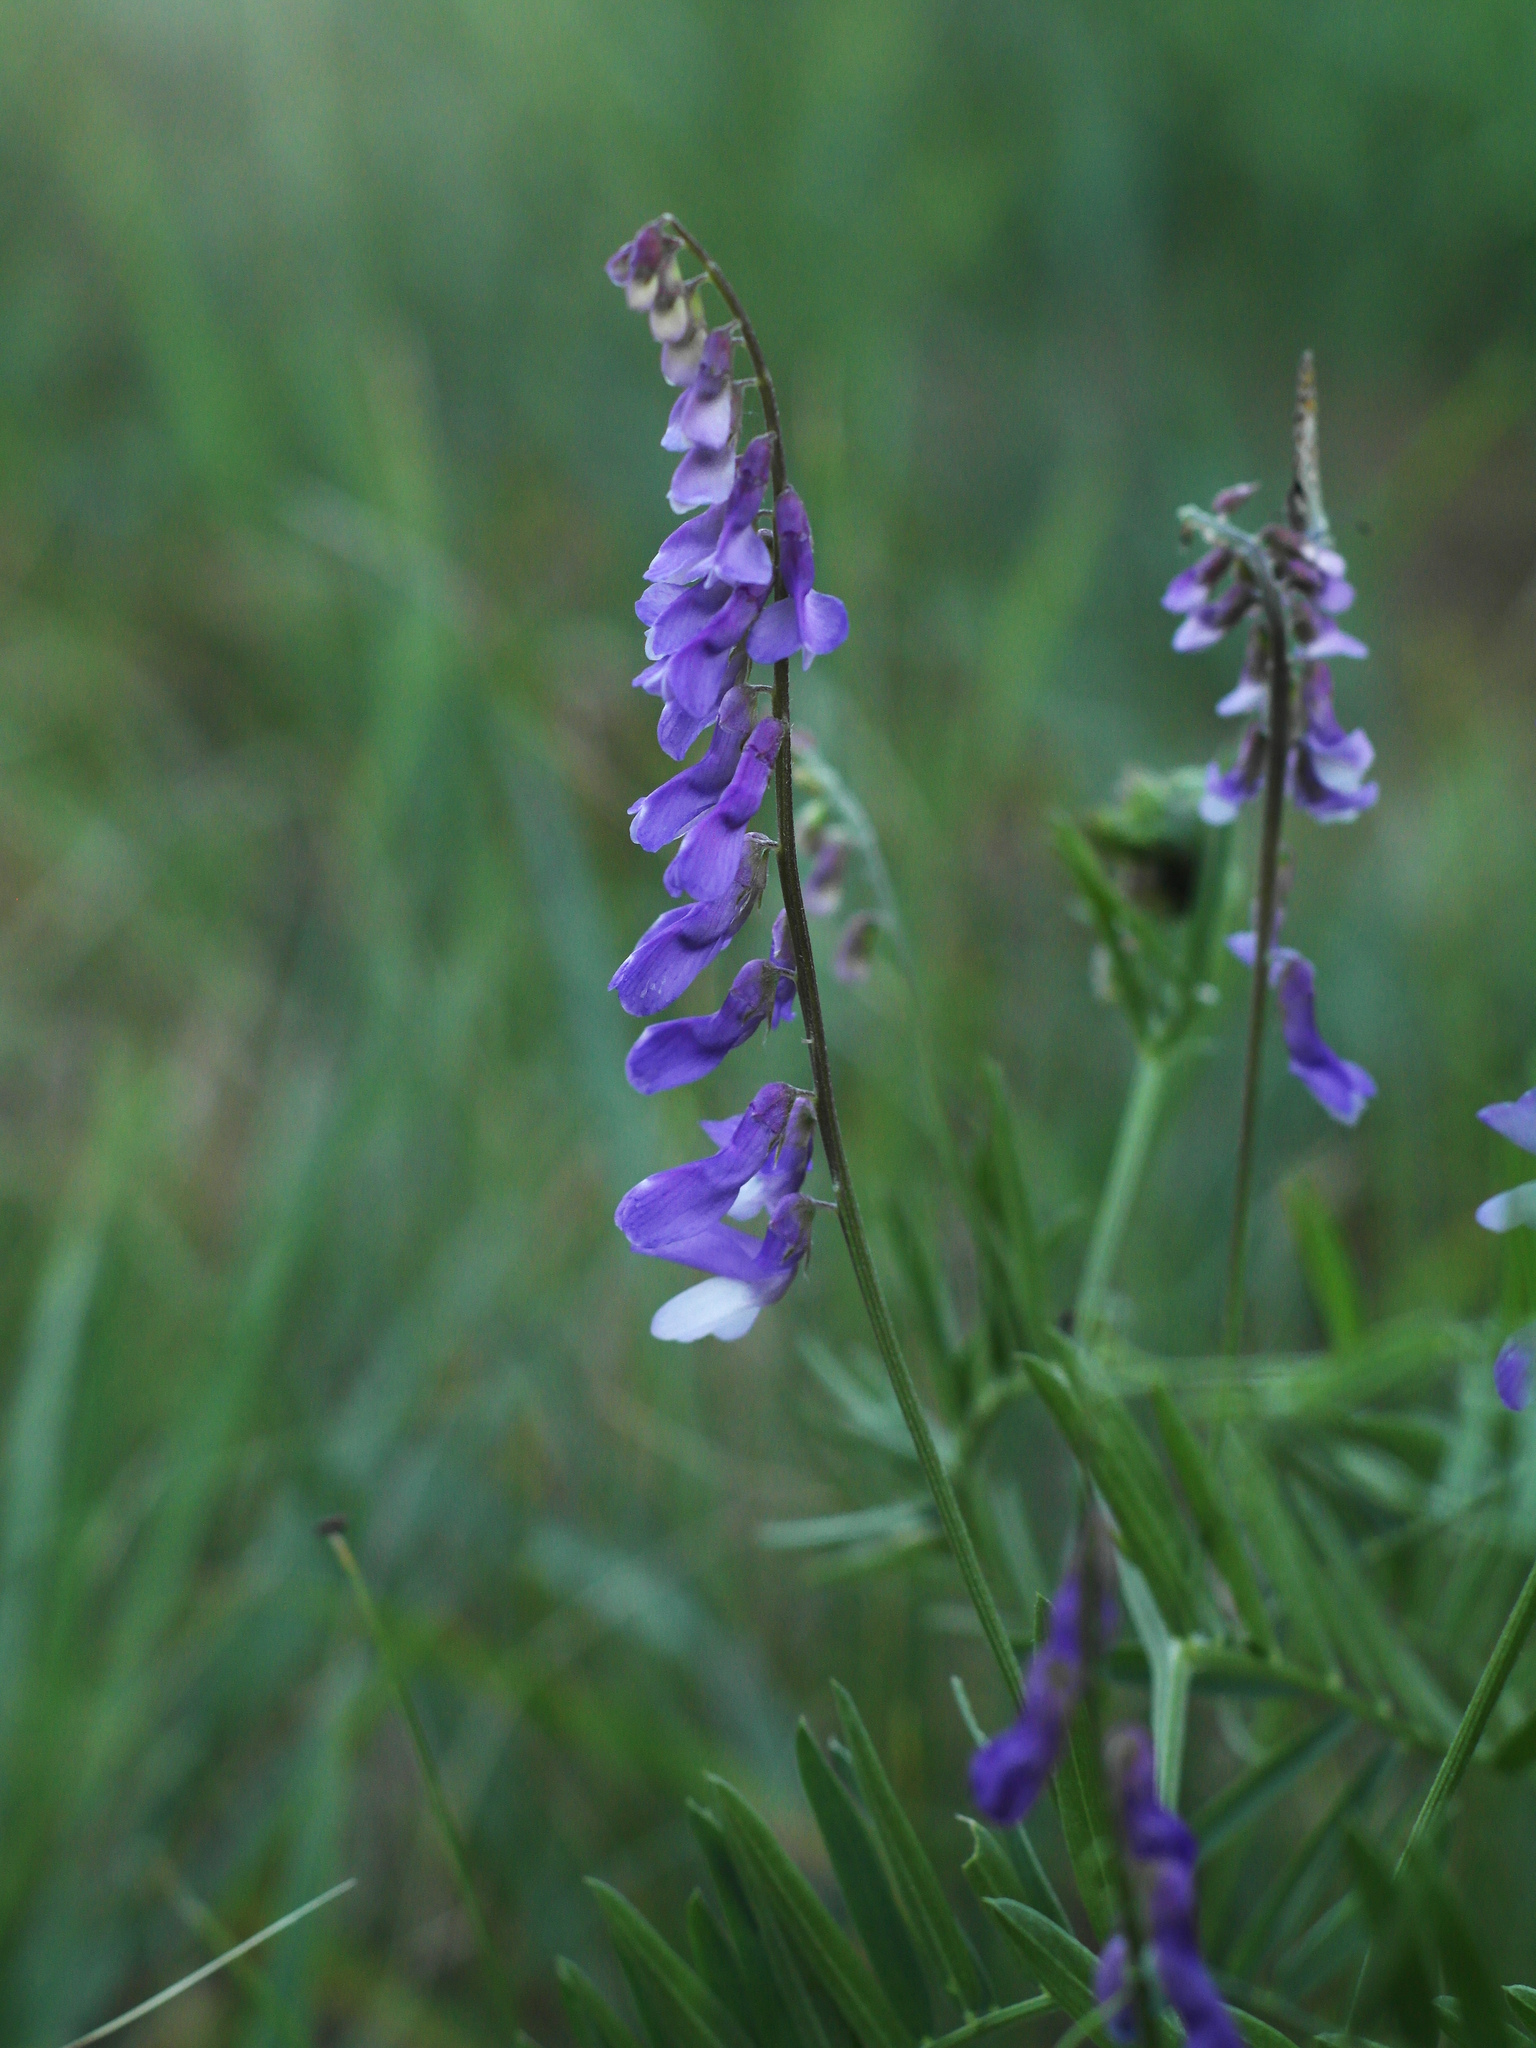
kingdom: Plantae
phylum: Tracheophyta
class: Magnoliopsida
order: Fabales
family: Fabaceae
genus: Vicia
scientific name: Vicia tenuifolia
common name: Fine-leaved vetch
